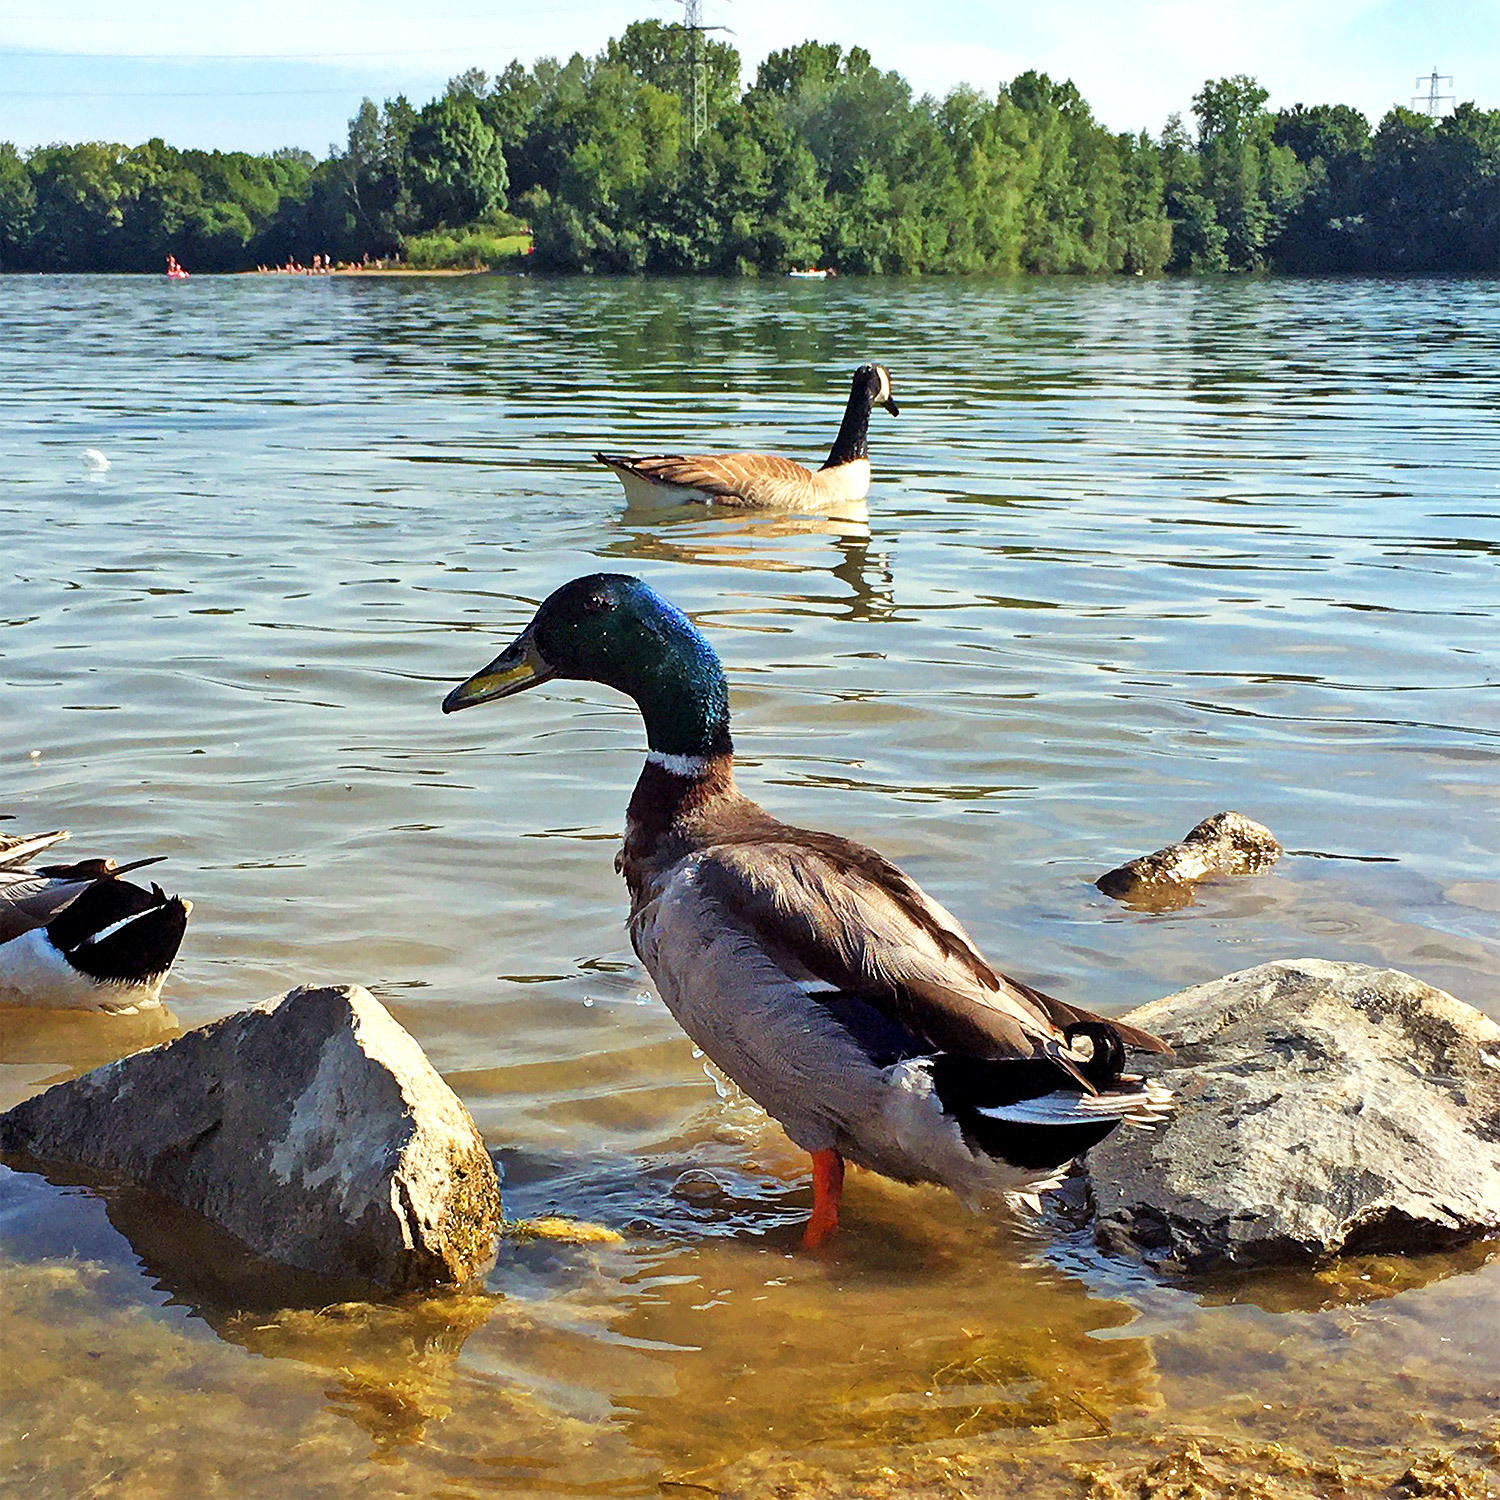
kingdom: Animalia
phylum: Chordata
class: Aves
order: Anseriformes
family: Anatidae
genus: Anas
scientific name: Anas platyrhynchos
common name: Mallard
